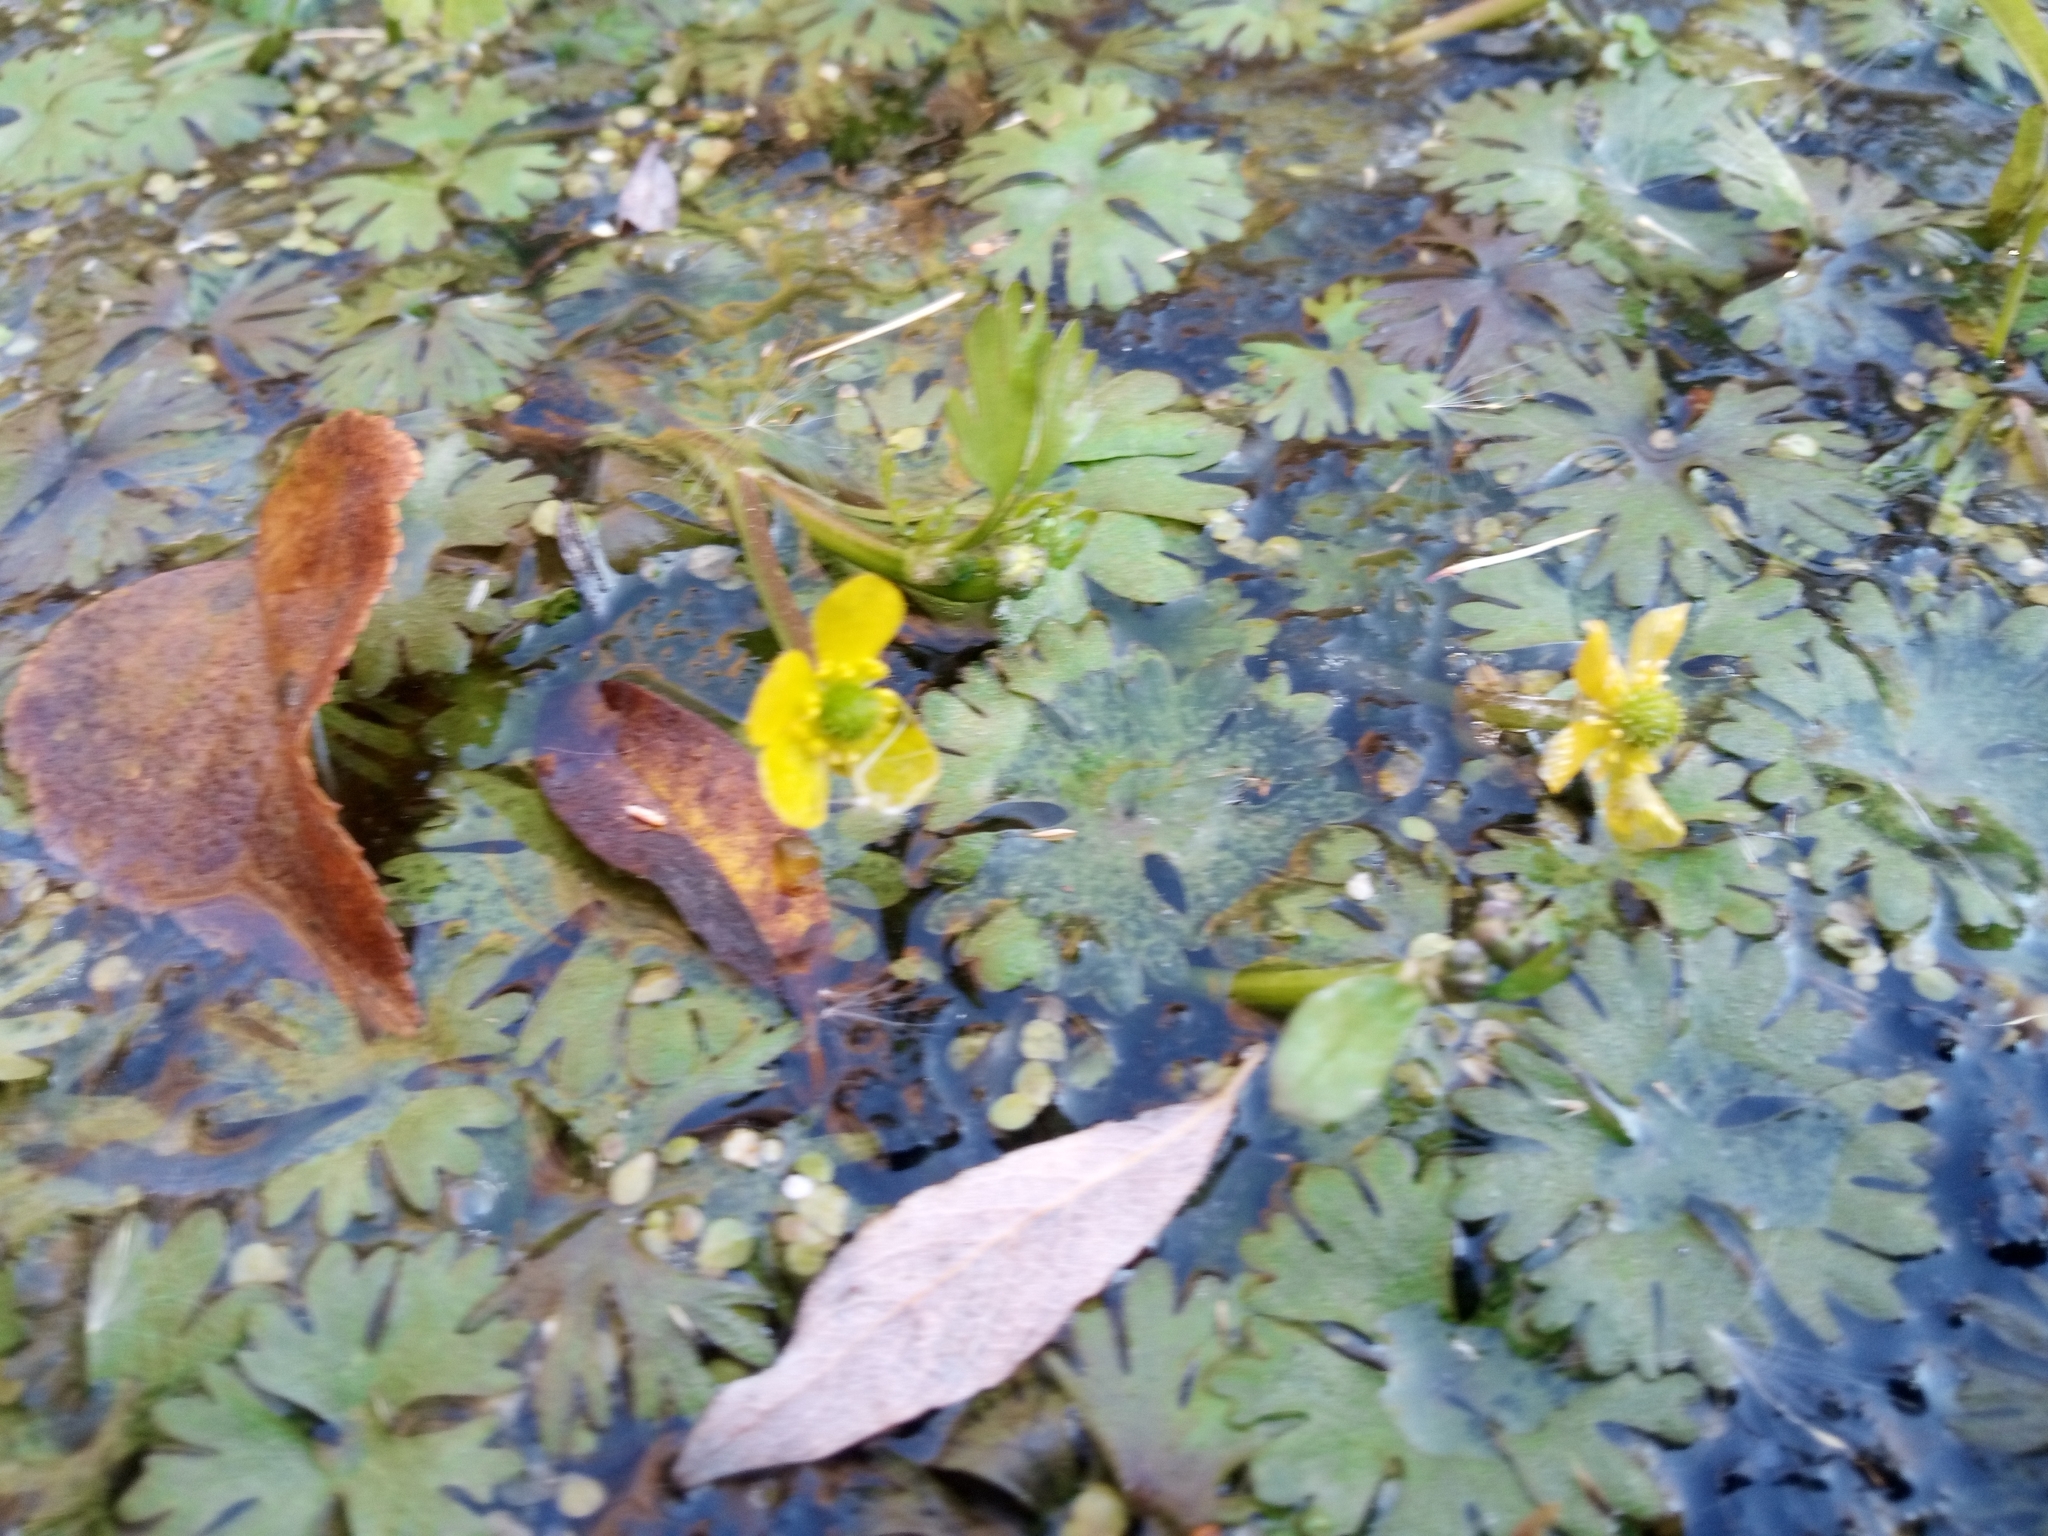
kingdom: Plantae
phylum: Tracheophyta
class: Magnoliopsida
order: Ranunculales
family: Ranunculaceae
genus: Ranunculus
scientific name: Ranunculus gmelinii
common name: Gmelin's buttercup
